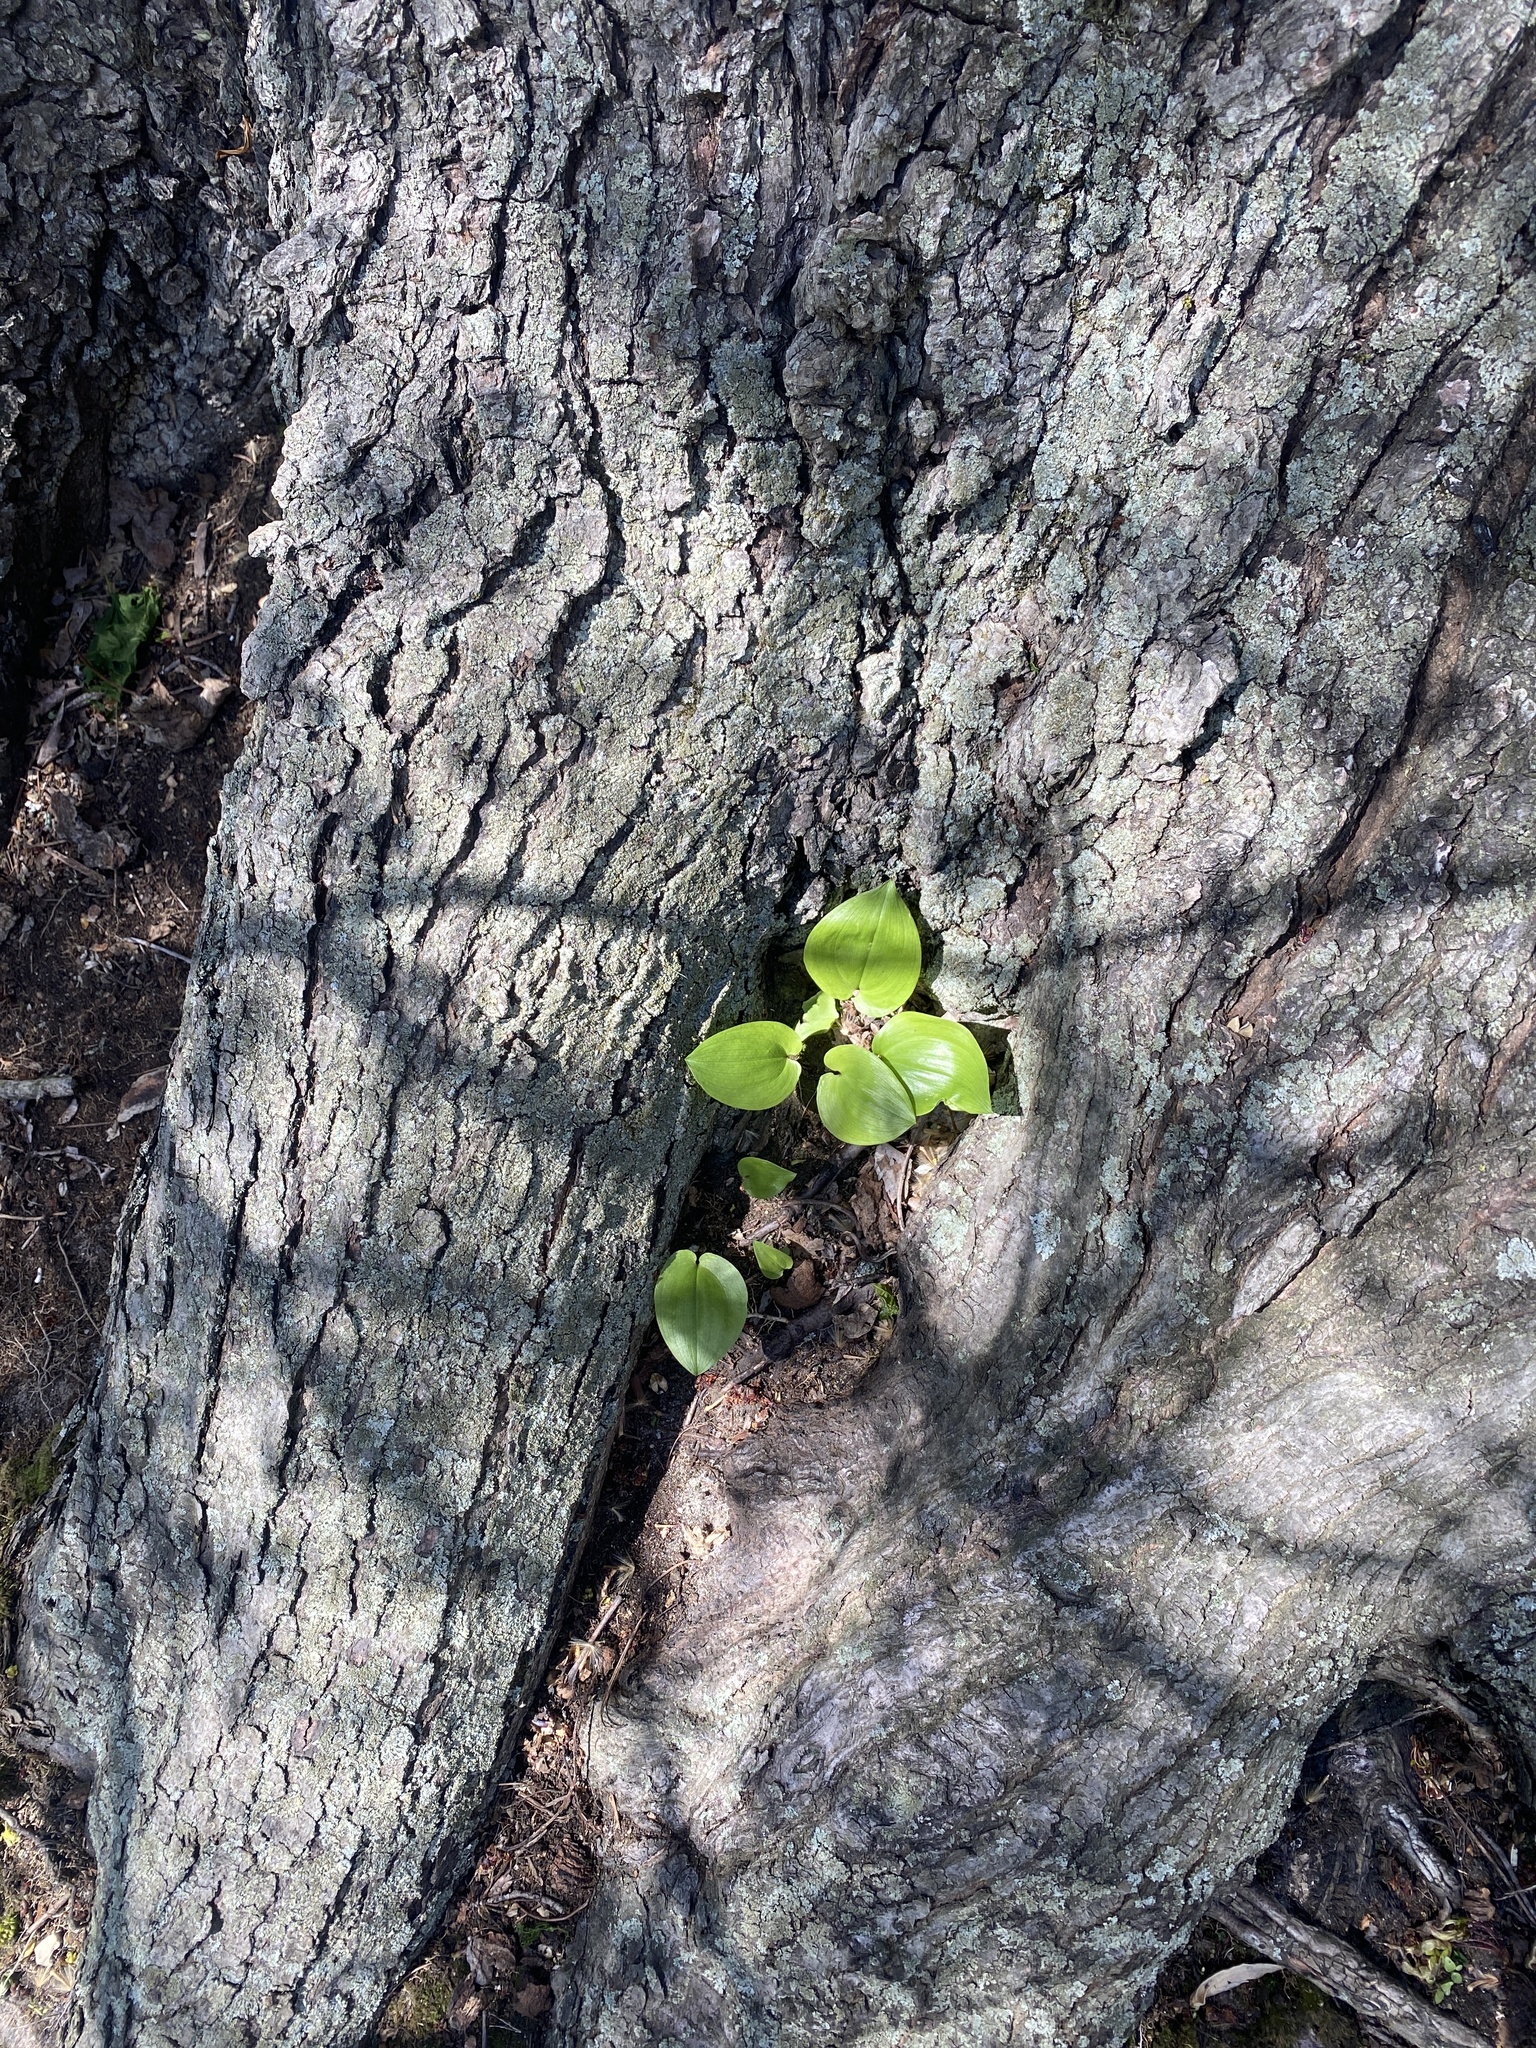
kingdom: Plantae
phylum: Tracheophyta
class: Liliopsida
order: Asparagales
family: Asparagaceae
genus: Maianthemum
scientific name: Maianthemum canadense
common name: False lily-of-the-valley
